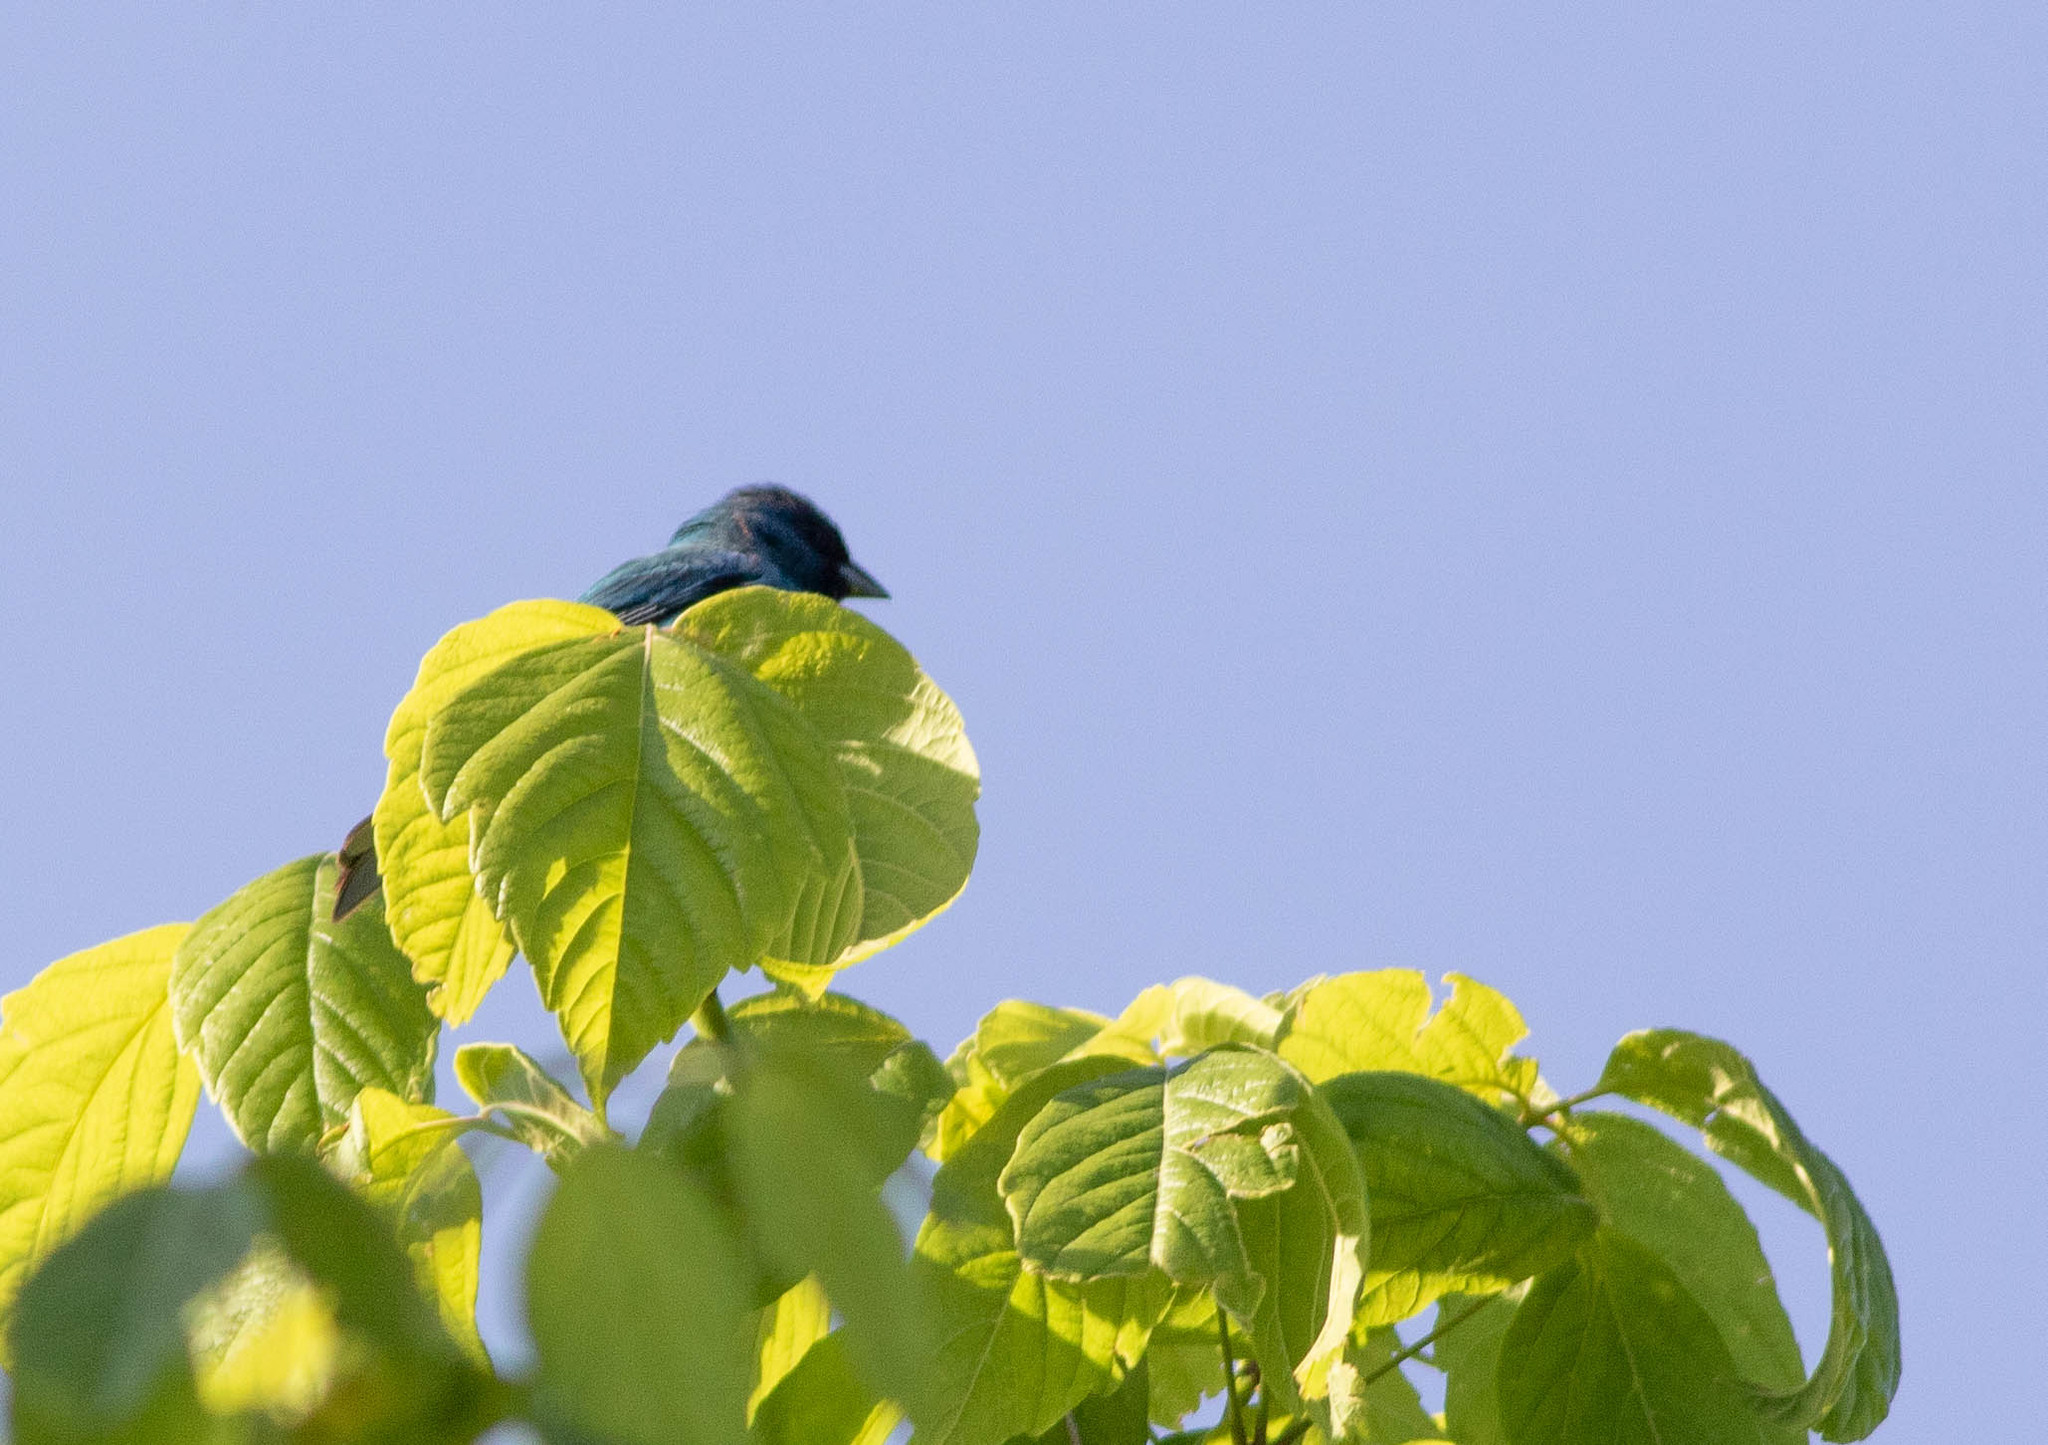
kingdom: Animalia
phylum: Chordata
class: Aves
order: Passeriformes
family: Cardinalidae
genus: Passerina
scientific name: Passerina cyanea
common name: Indigo bunting
